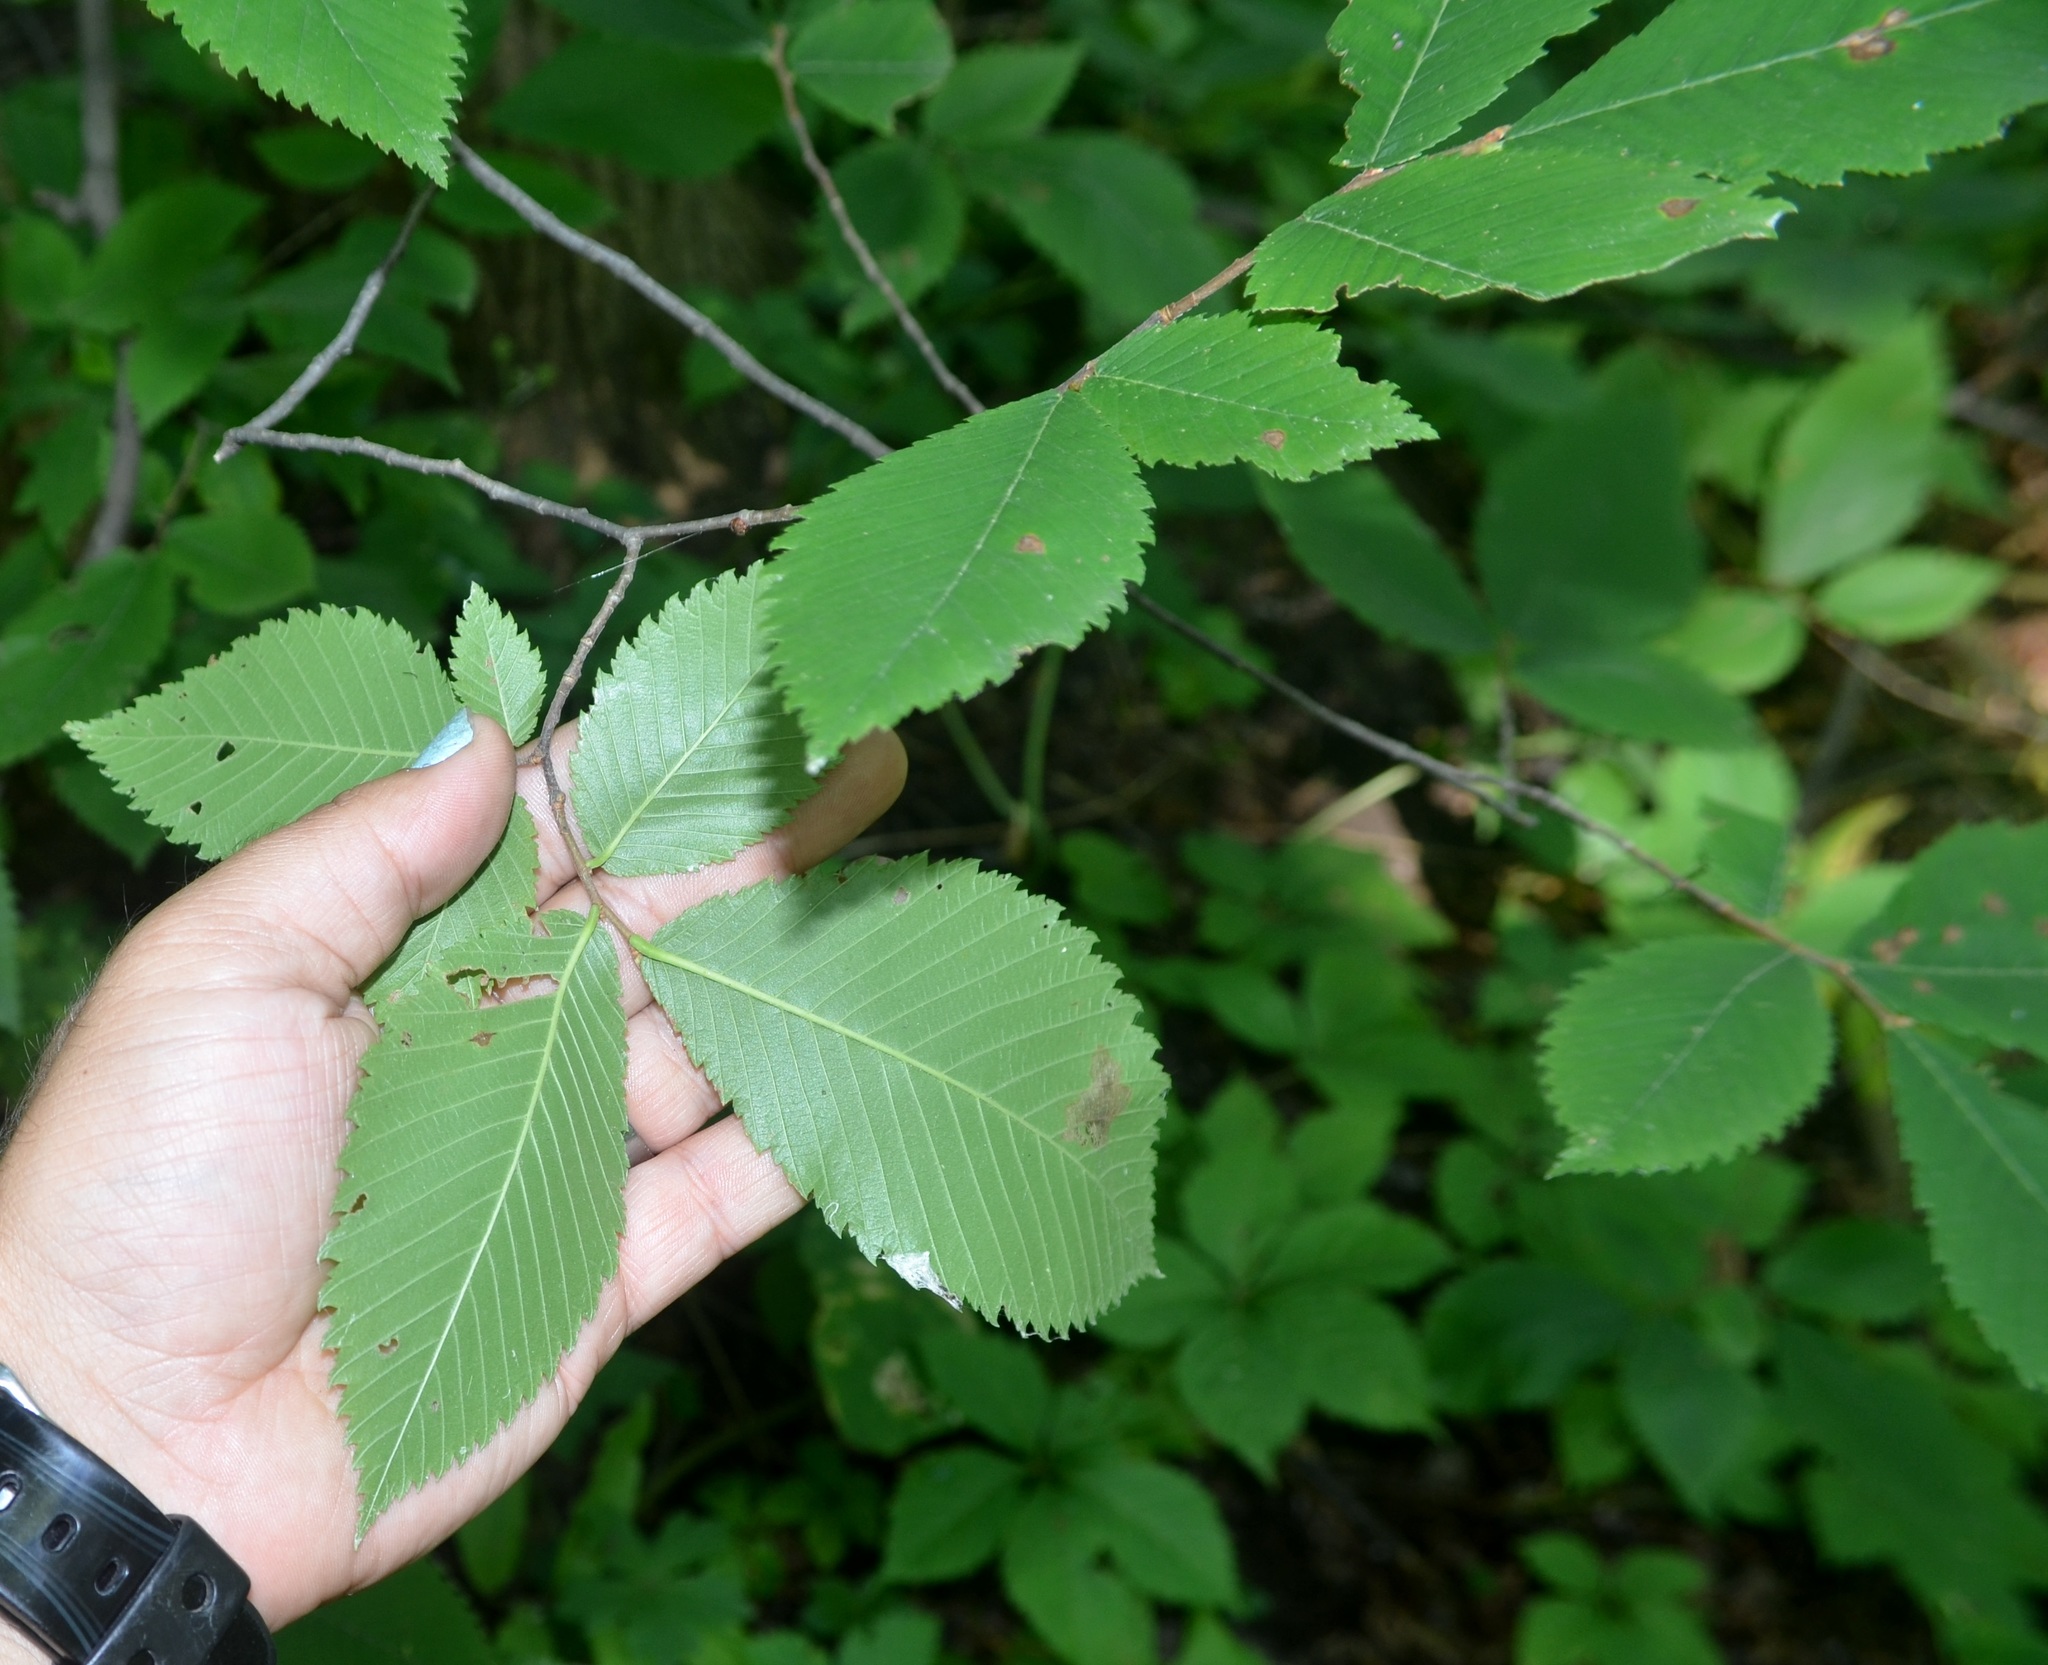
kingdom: Plantae
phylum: Tracheophyta
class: Magnoliopsida
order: Rosales
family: Ulmaceae
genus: Ulmus
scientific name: Ulmus americana
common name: American elm
